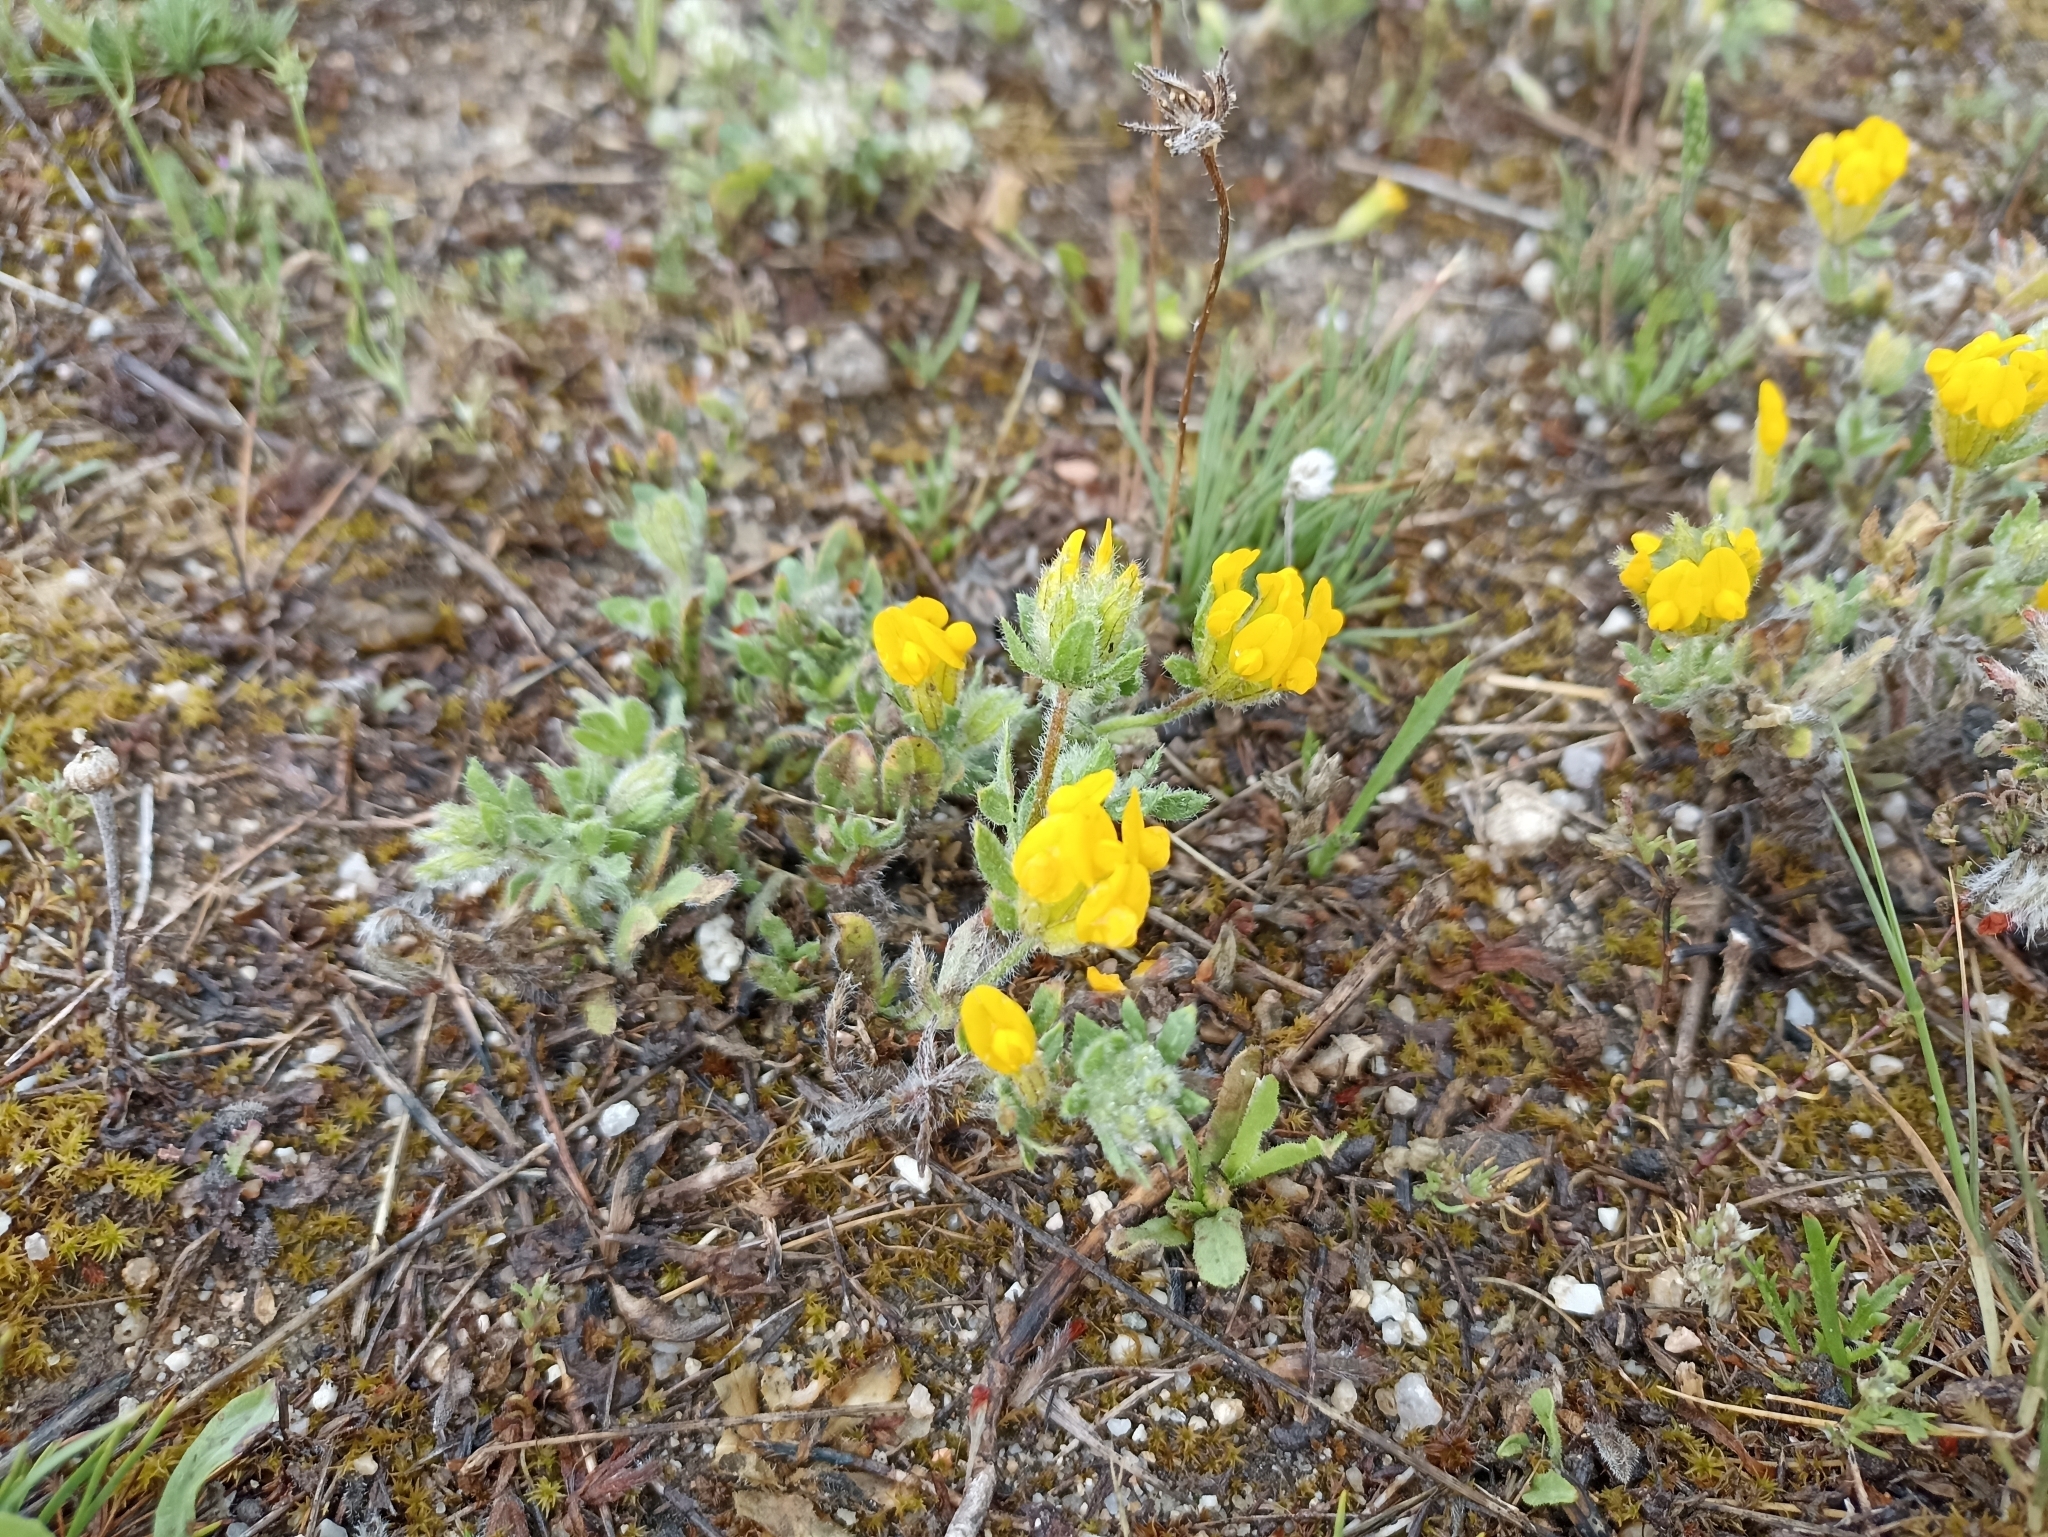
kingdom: Plantae
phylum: Tracheophyta
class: Magnoliopsida
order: Fabales
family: Fabaceae
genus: Anthyllis
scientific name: Anthyllis lotoides
